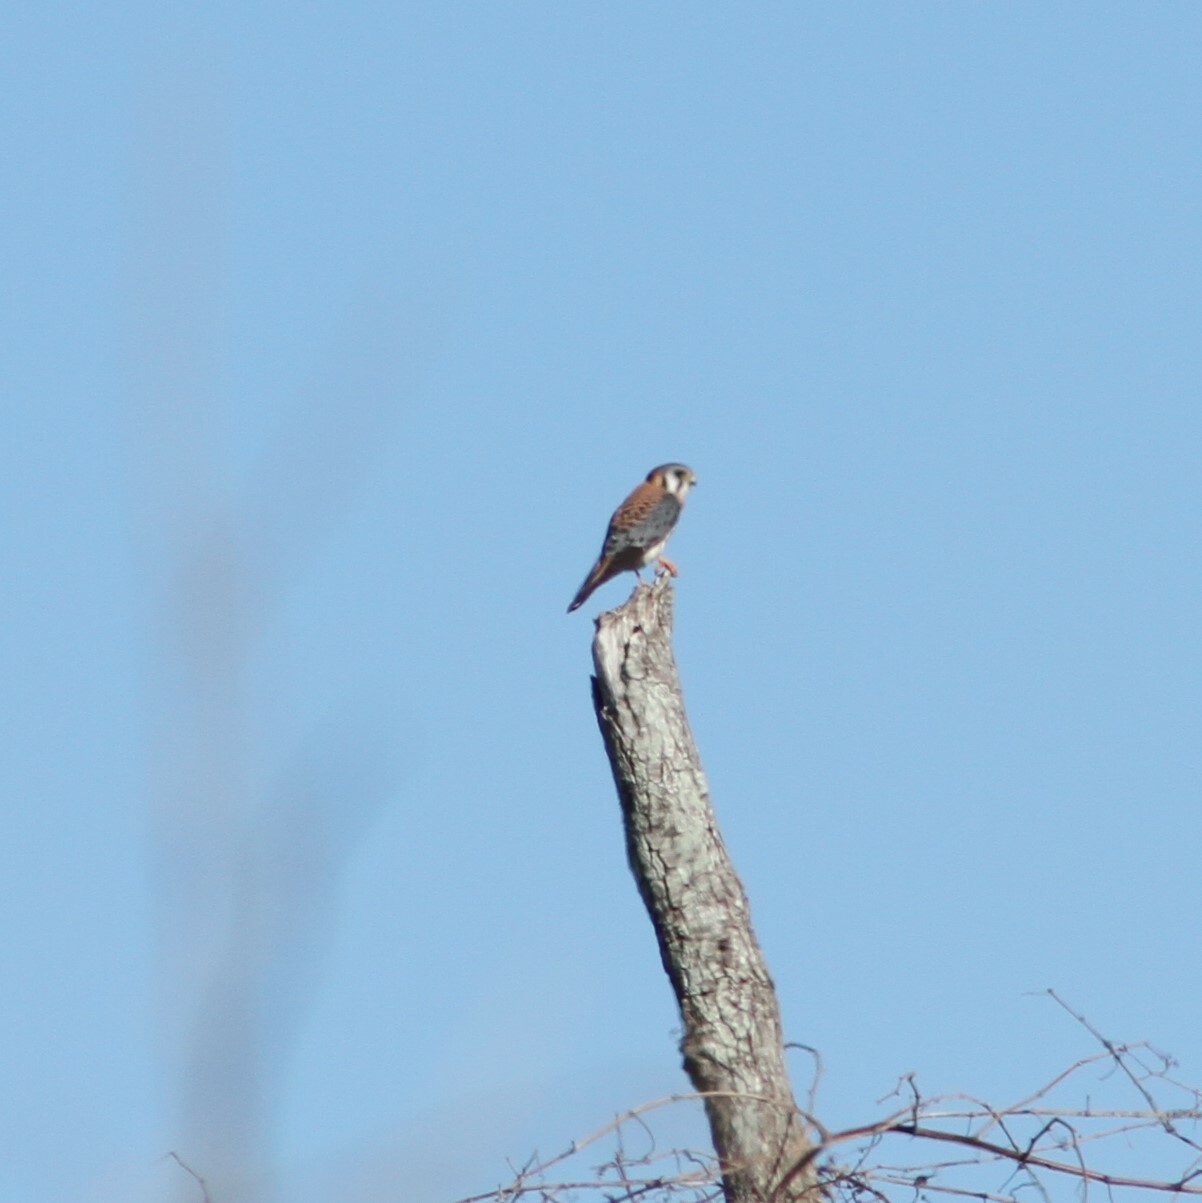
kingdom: Animalia
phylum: Chordata
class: Aves
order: Falconiformes
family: Falconidae
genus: Falco
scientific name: Falco sparverius
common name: American kestrel
